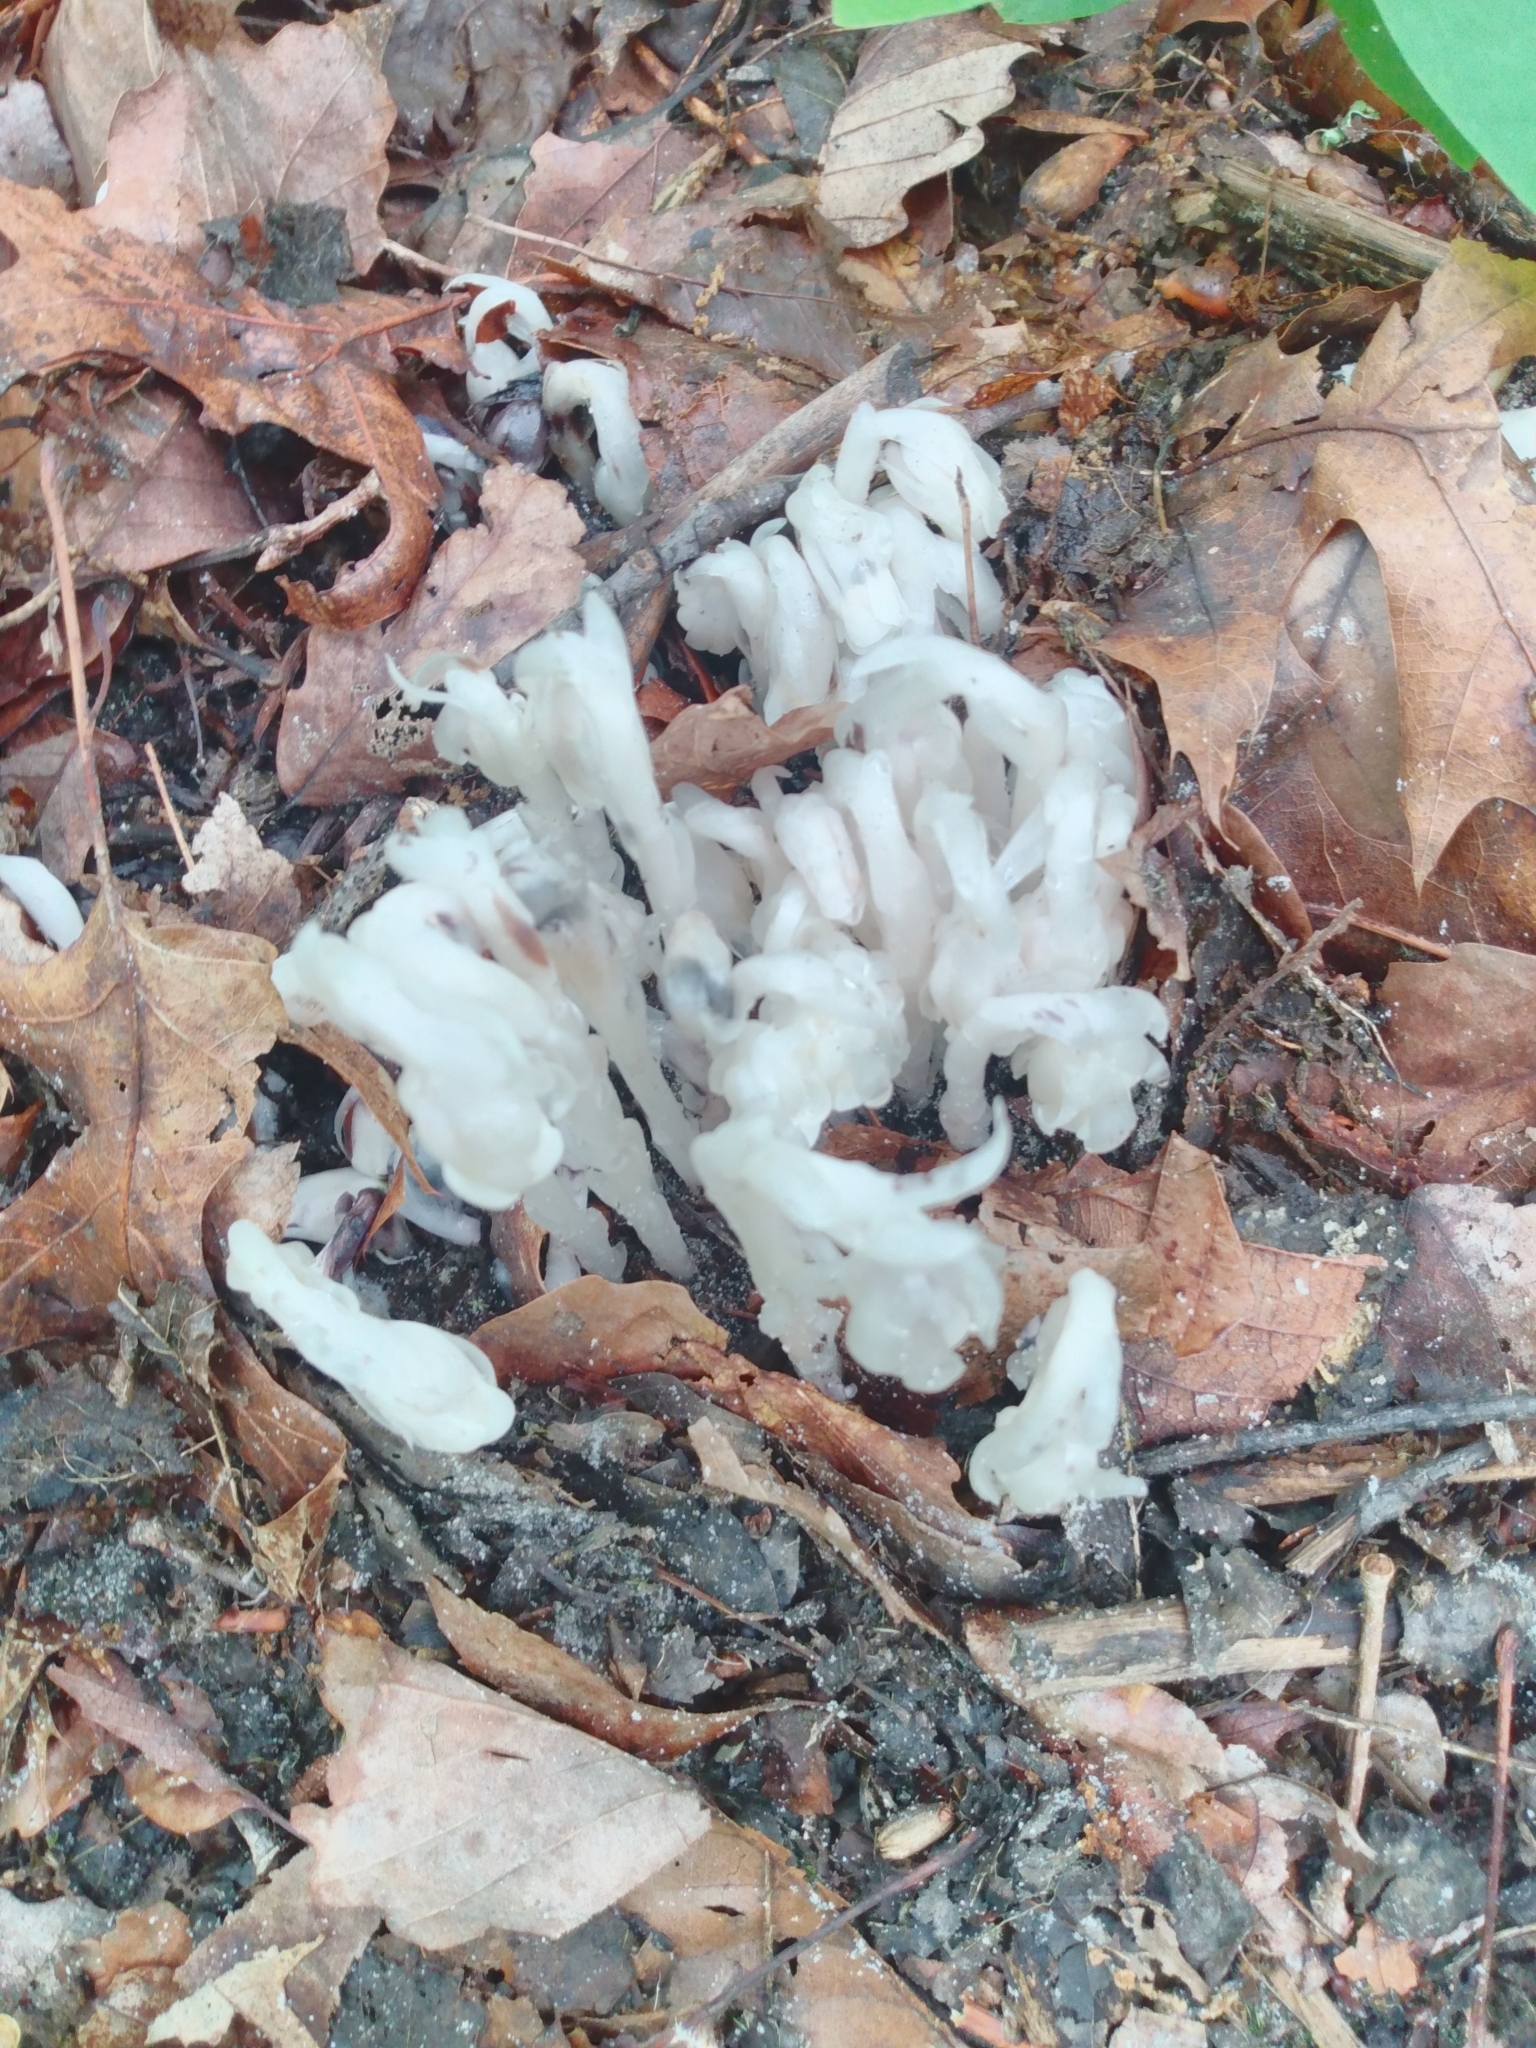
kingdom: Plantae
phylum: Tracheophyta
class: Magnoliopsida
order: Ericales
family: Ericaceae
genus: Monotropa
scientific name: Monotropa uniflora
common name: Convulsion root
